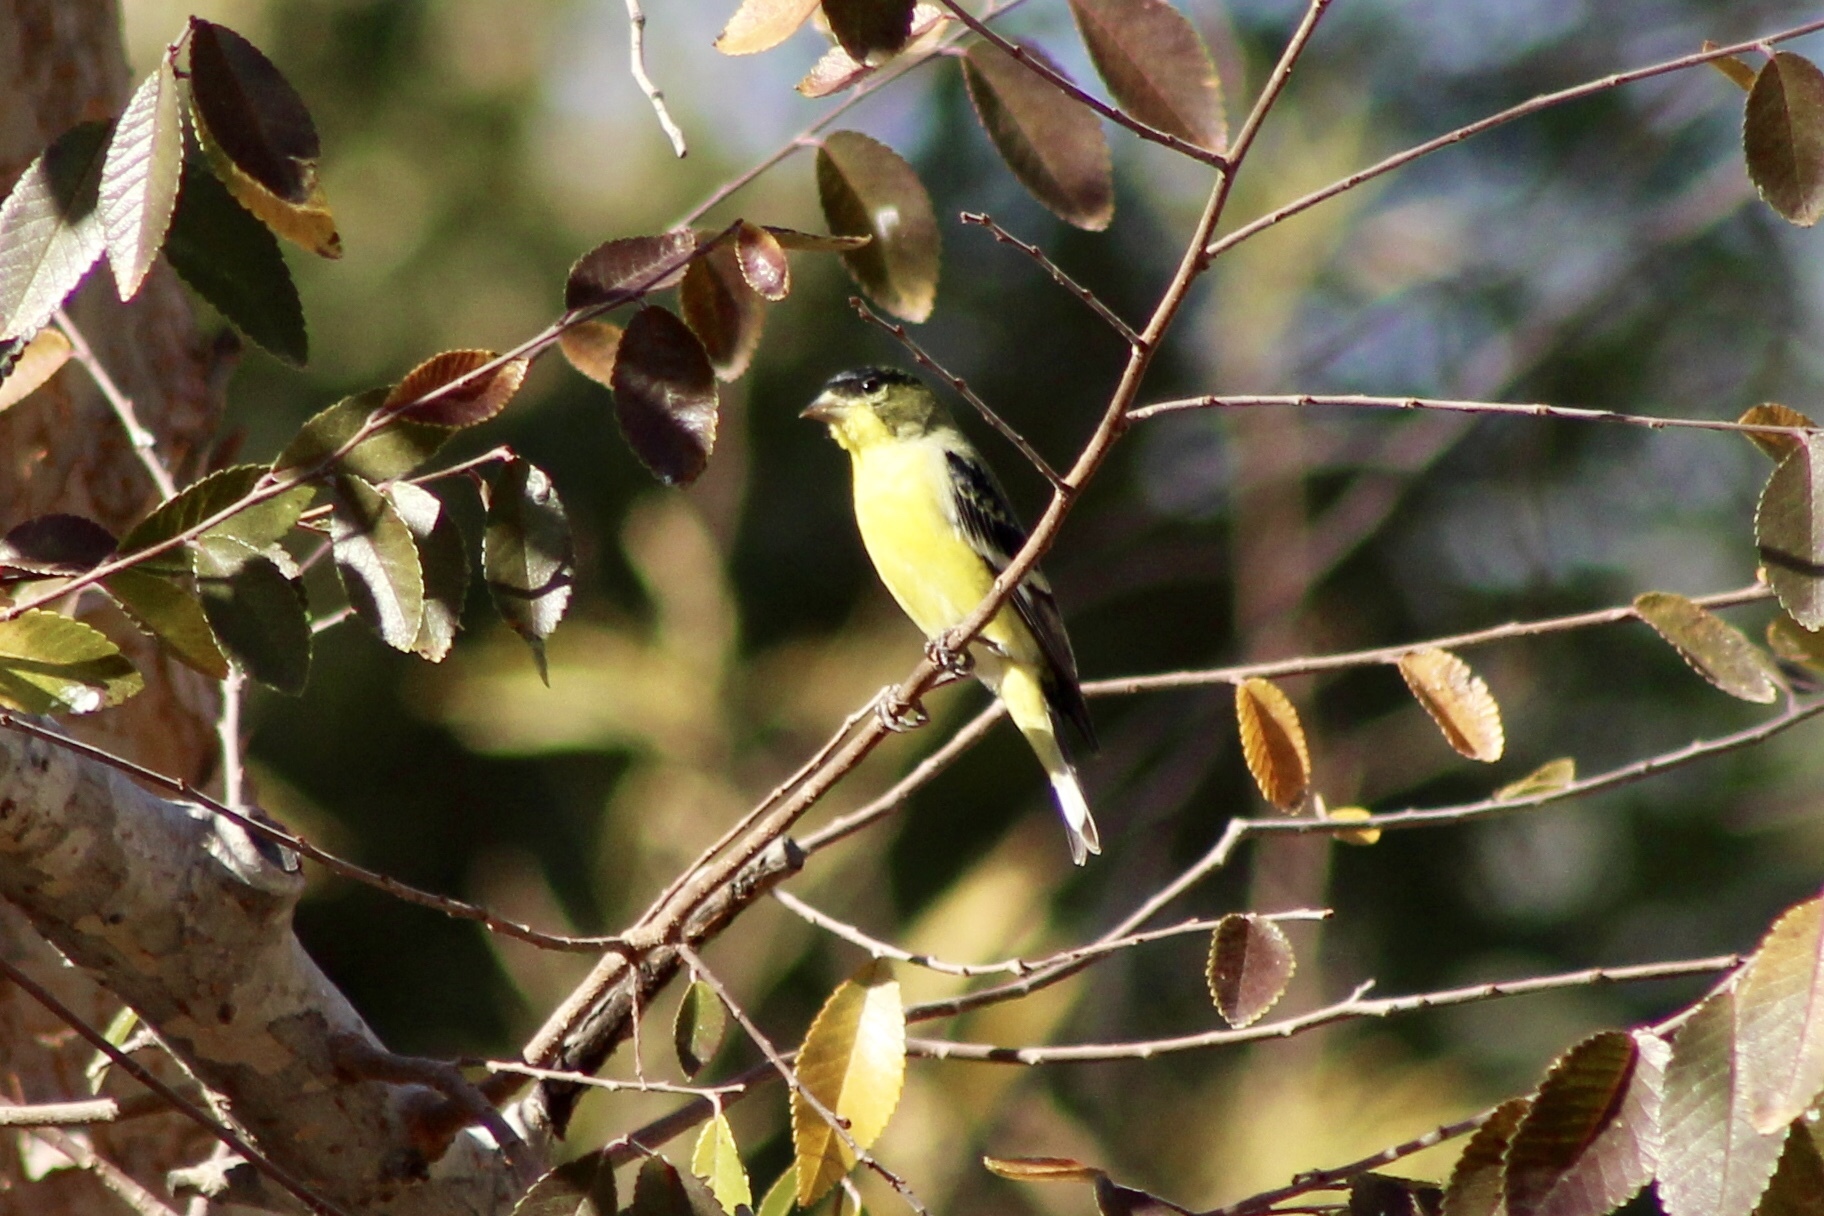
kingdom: Animalia
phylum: Chordata
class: Aves
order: Passeriformes
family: Fringillidae
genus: Spinus
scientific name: Spinus psaltria
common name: Lesser goldfinch
